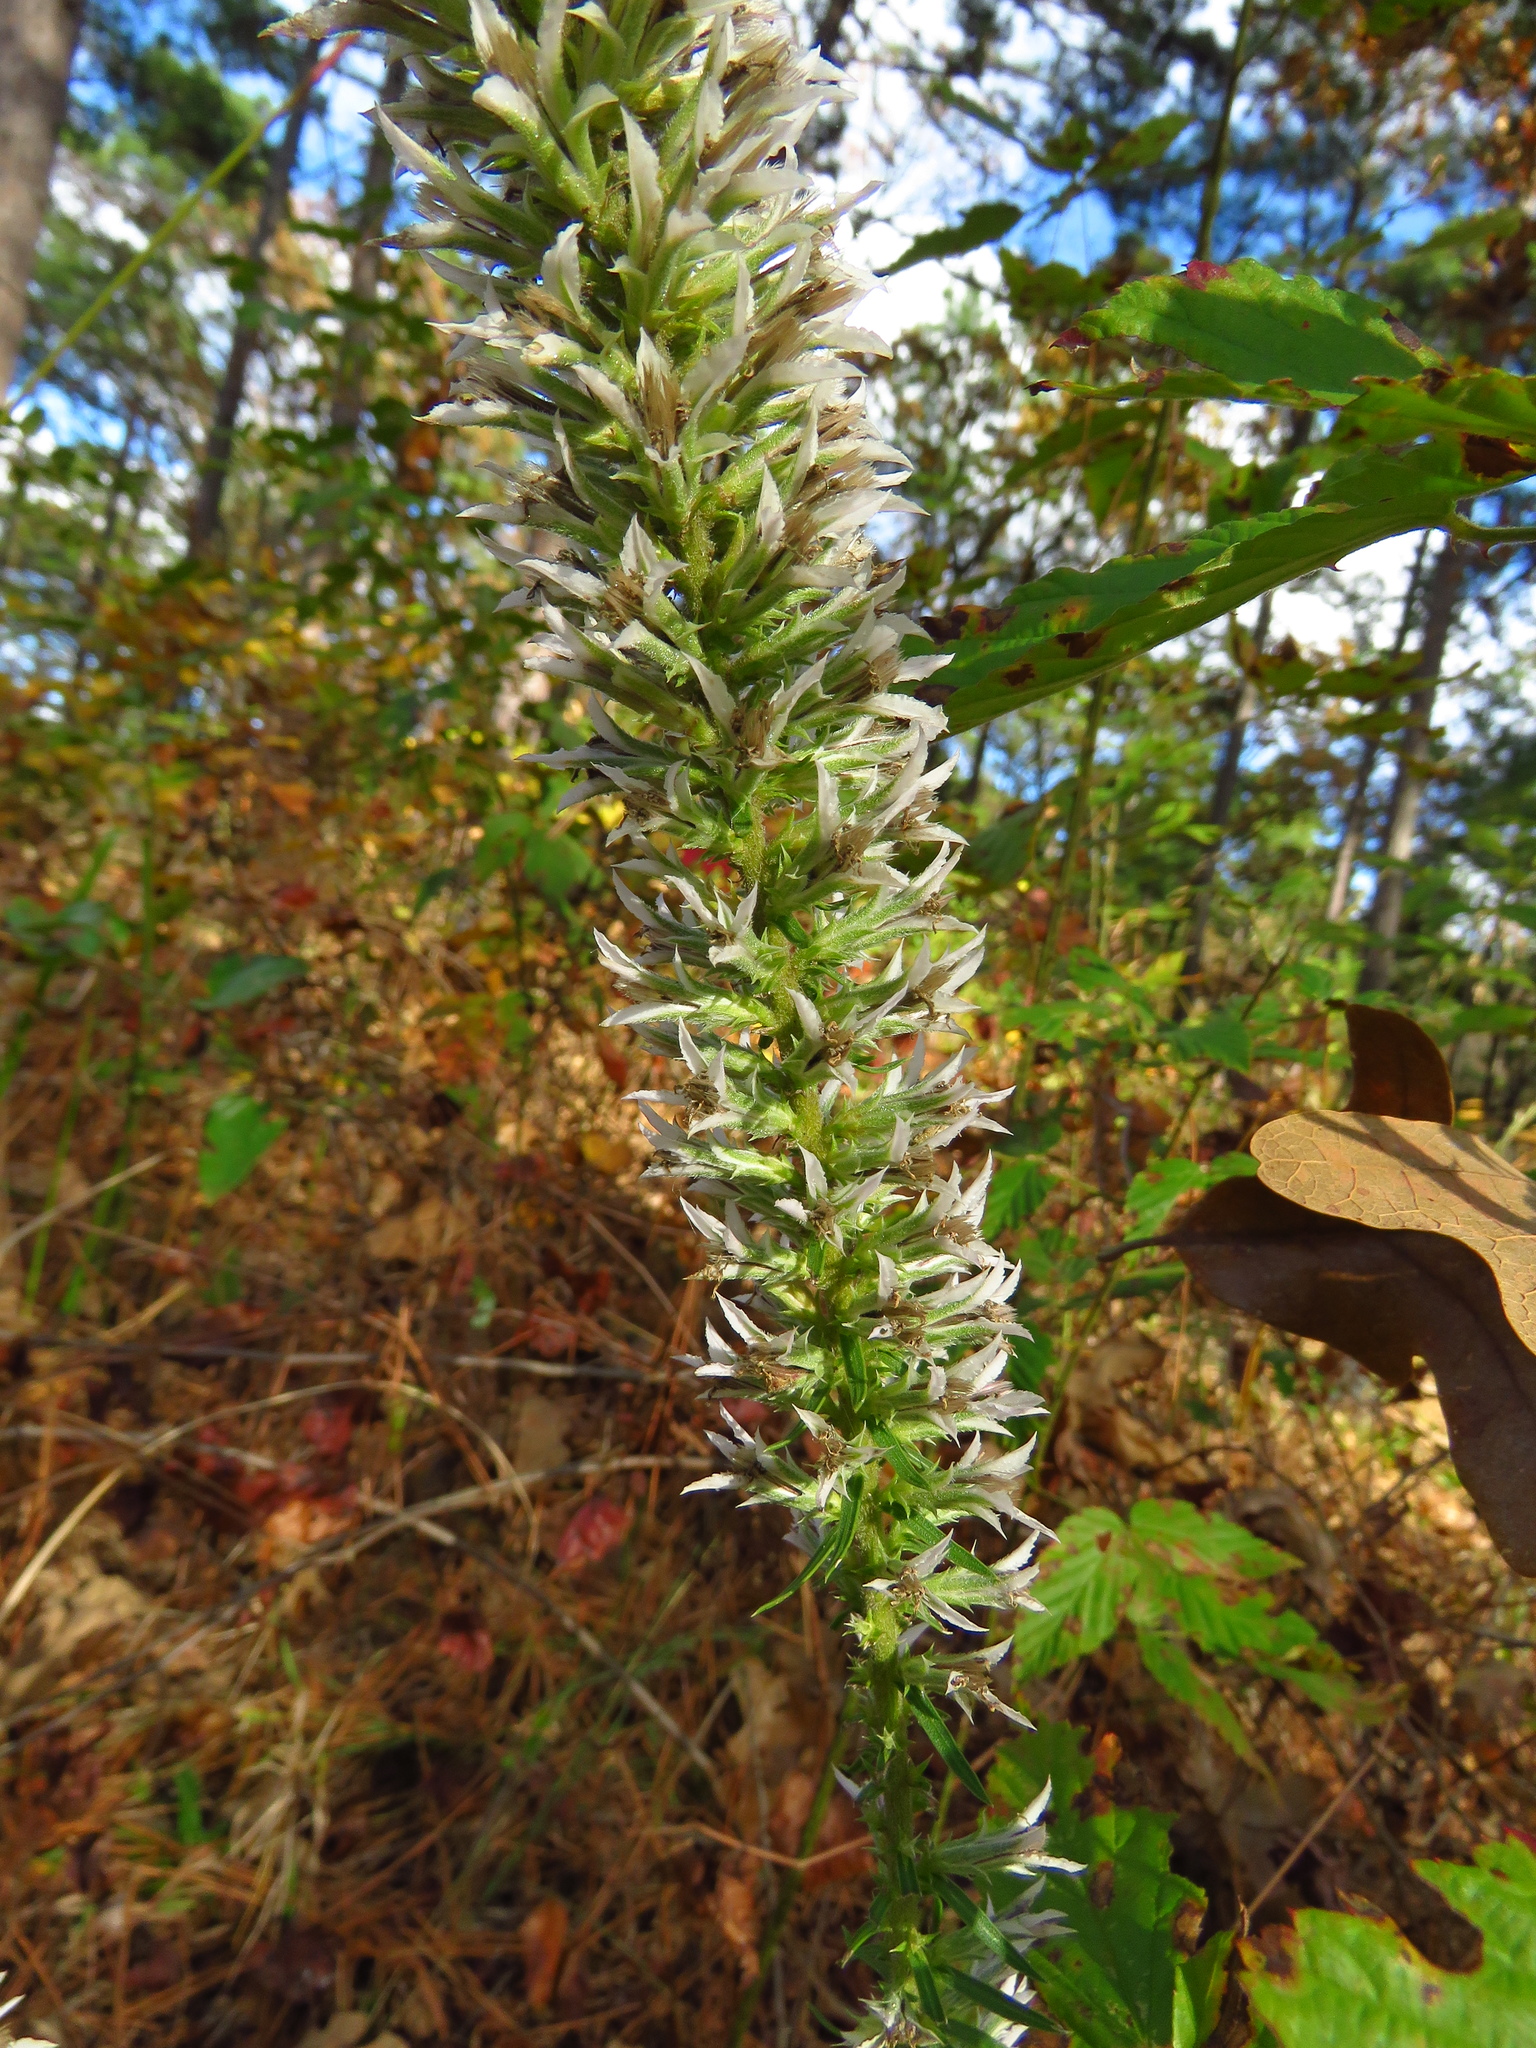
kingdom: Plantae
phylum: Tracheophyta
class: Magnoliopsida
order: Asterales
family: Asteraceae
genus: Liatris
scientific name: Liatris hesperelegans
